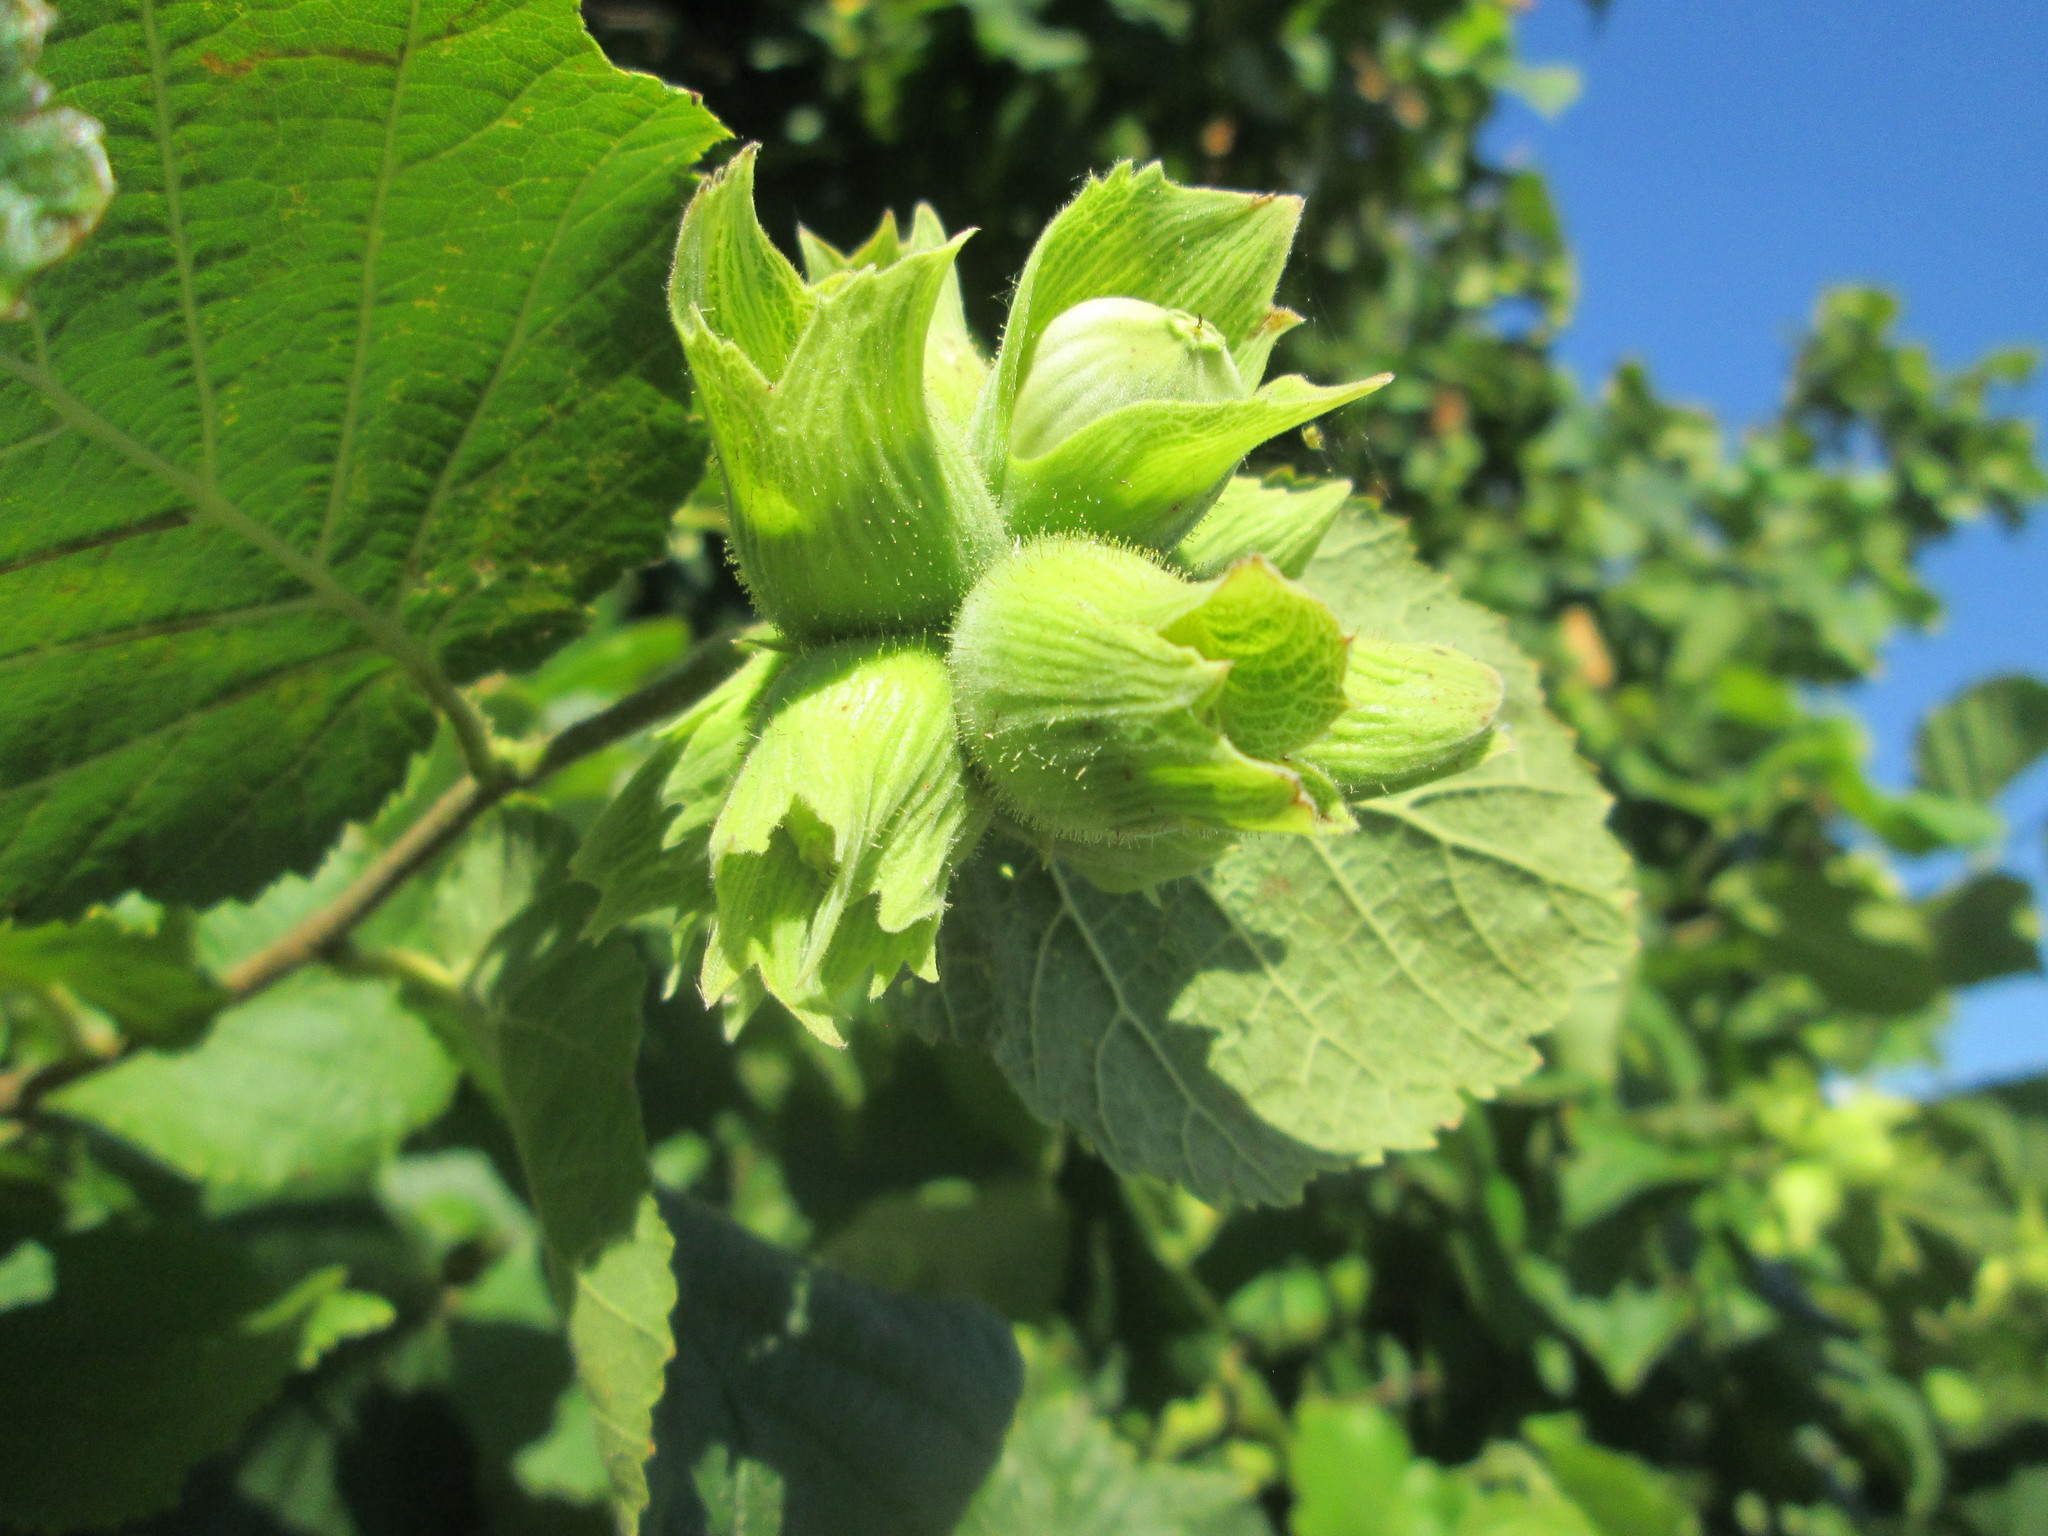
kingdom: Plantae
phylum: Tracheophyta
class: Magnoliopsida
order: Fagales
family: Betulaceae
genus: Corylus
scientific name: Corylus avellana
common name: European hazel
